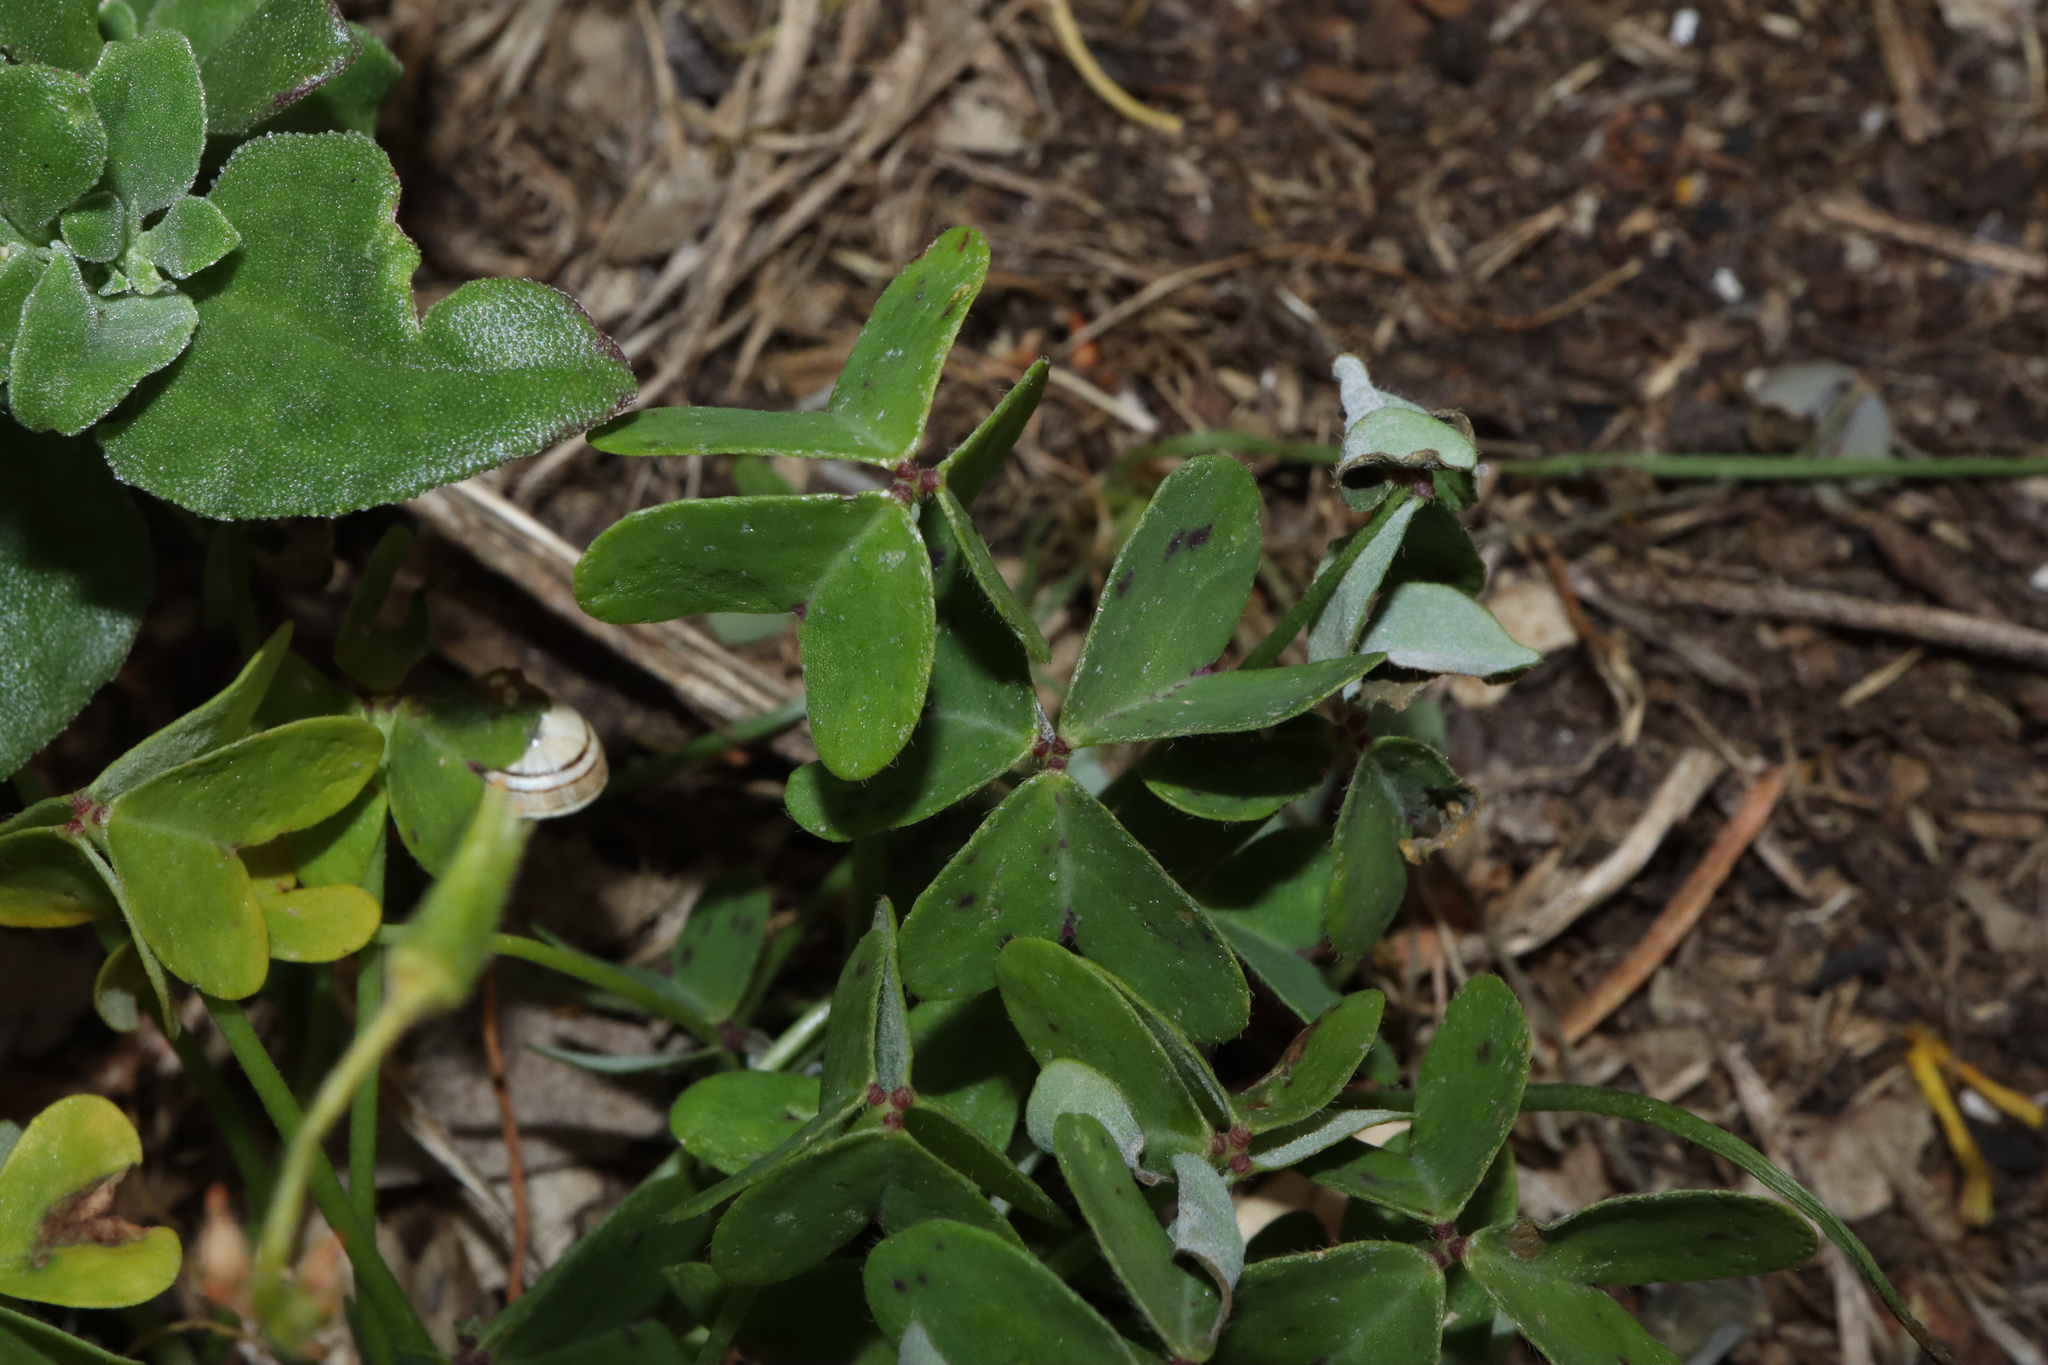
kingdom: Plantae
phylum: Tracheophyta
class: Magnoliopsida
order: Oxalidales
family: Oxalidaceae
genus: Oxalis
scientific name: Oxalis pes-caprae
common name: Bermuda-buttercup
